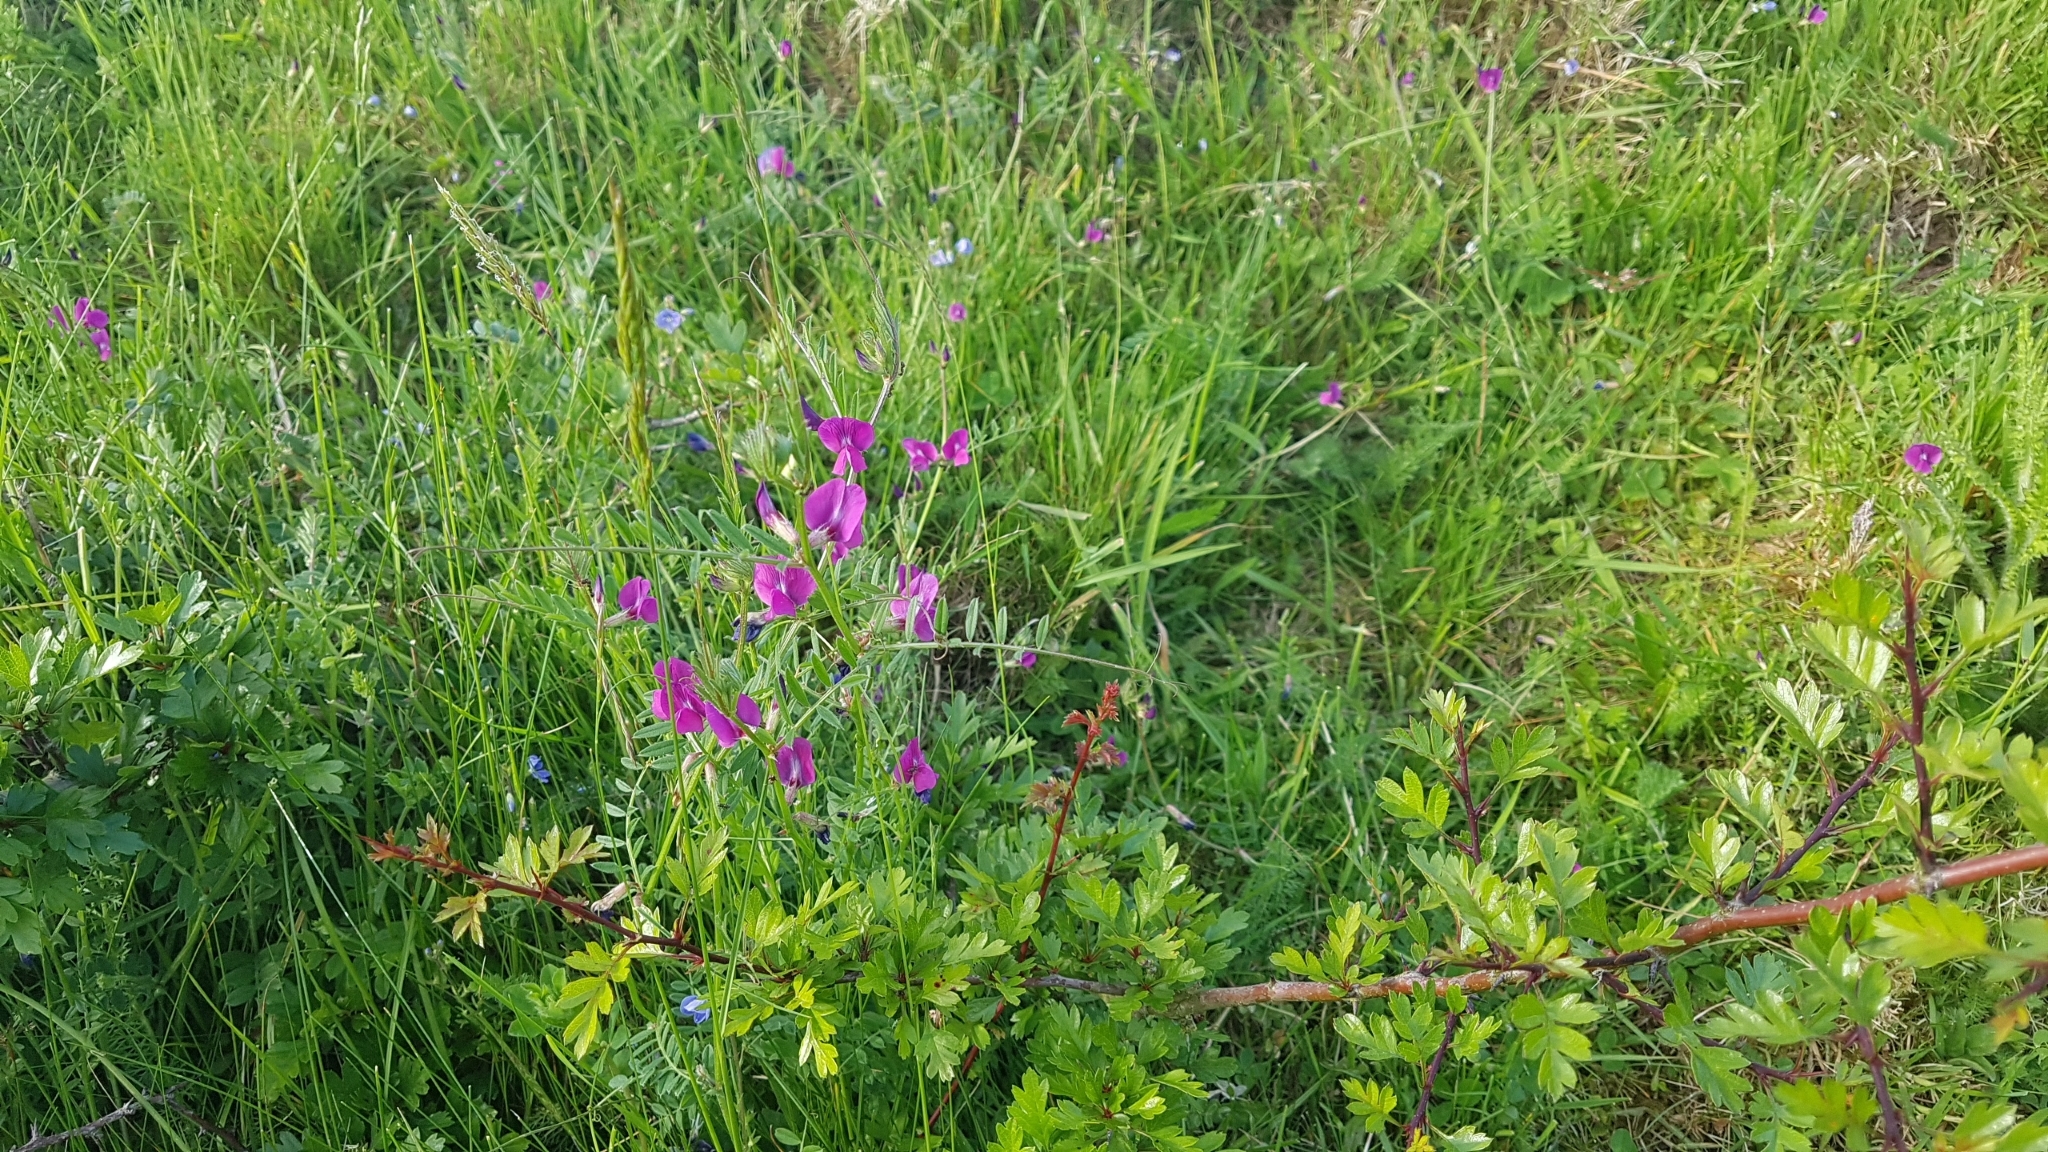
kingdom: Plantae
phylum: Tracheophyta
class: Magnoliopsida
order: Fabales
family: Fabaceae
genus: Vicia
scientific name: Vicia sativa
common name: Garden vetch
